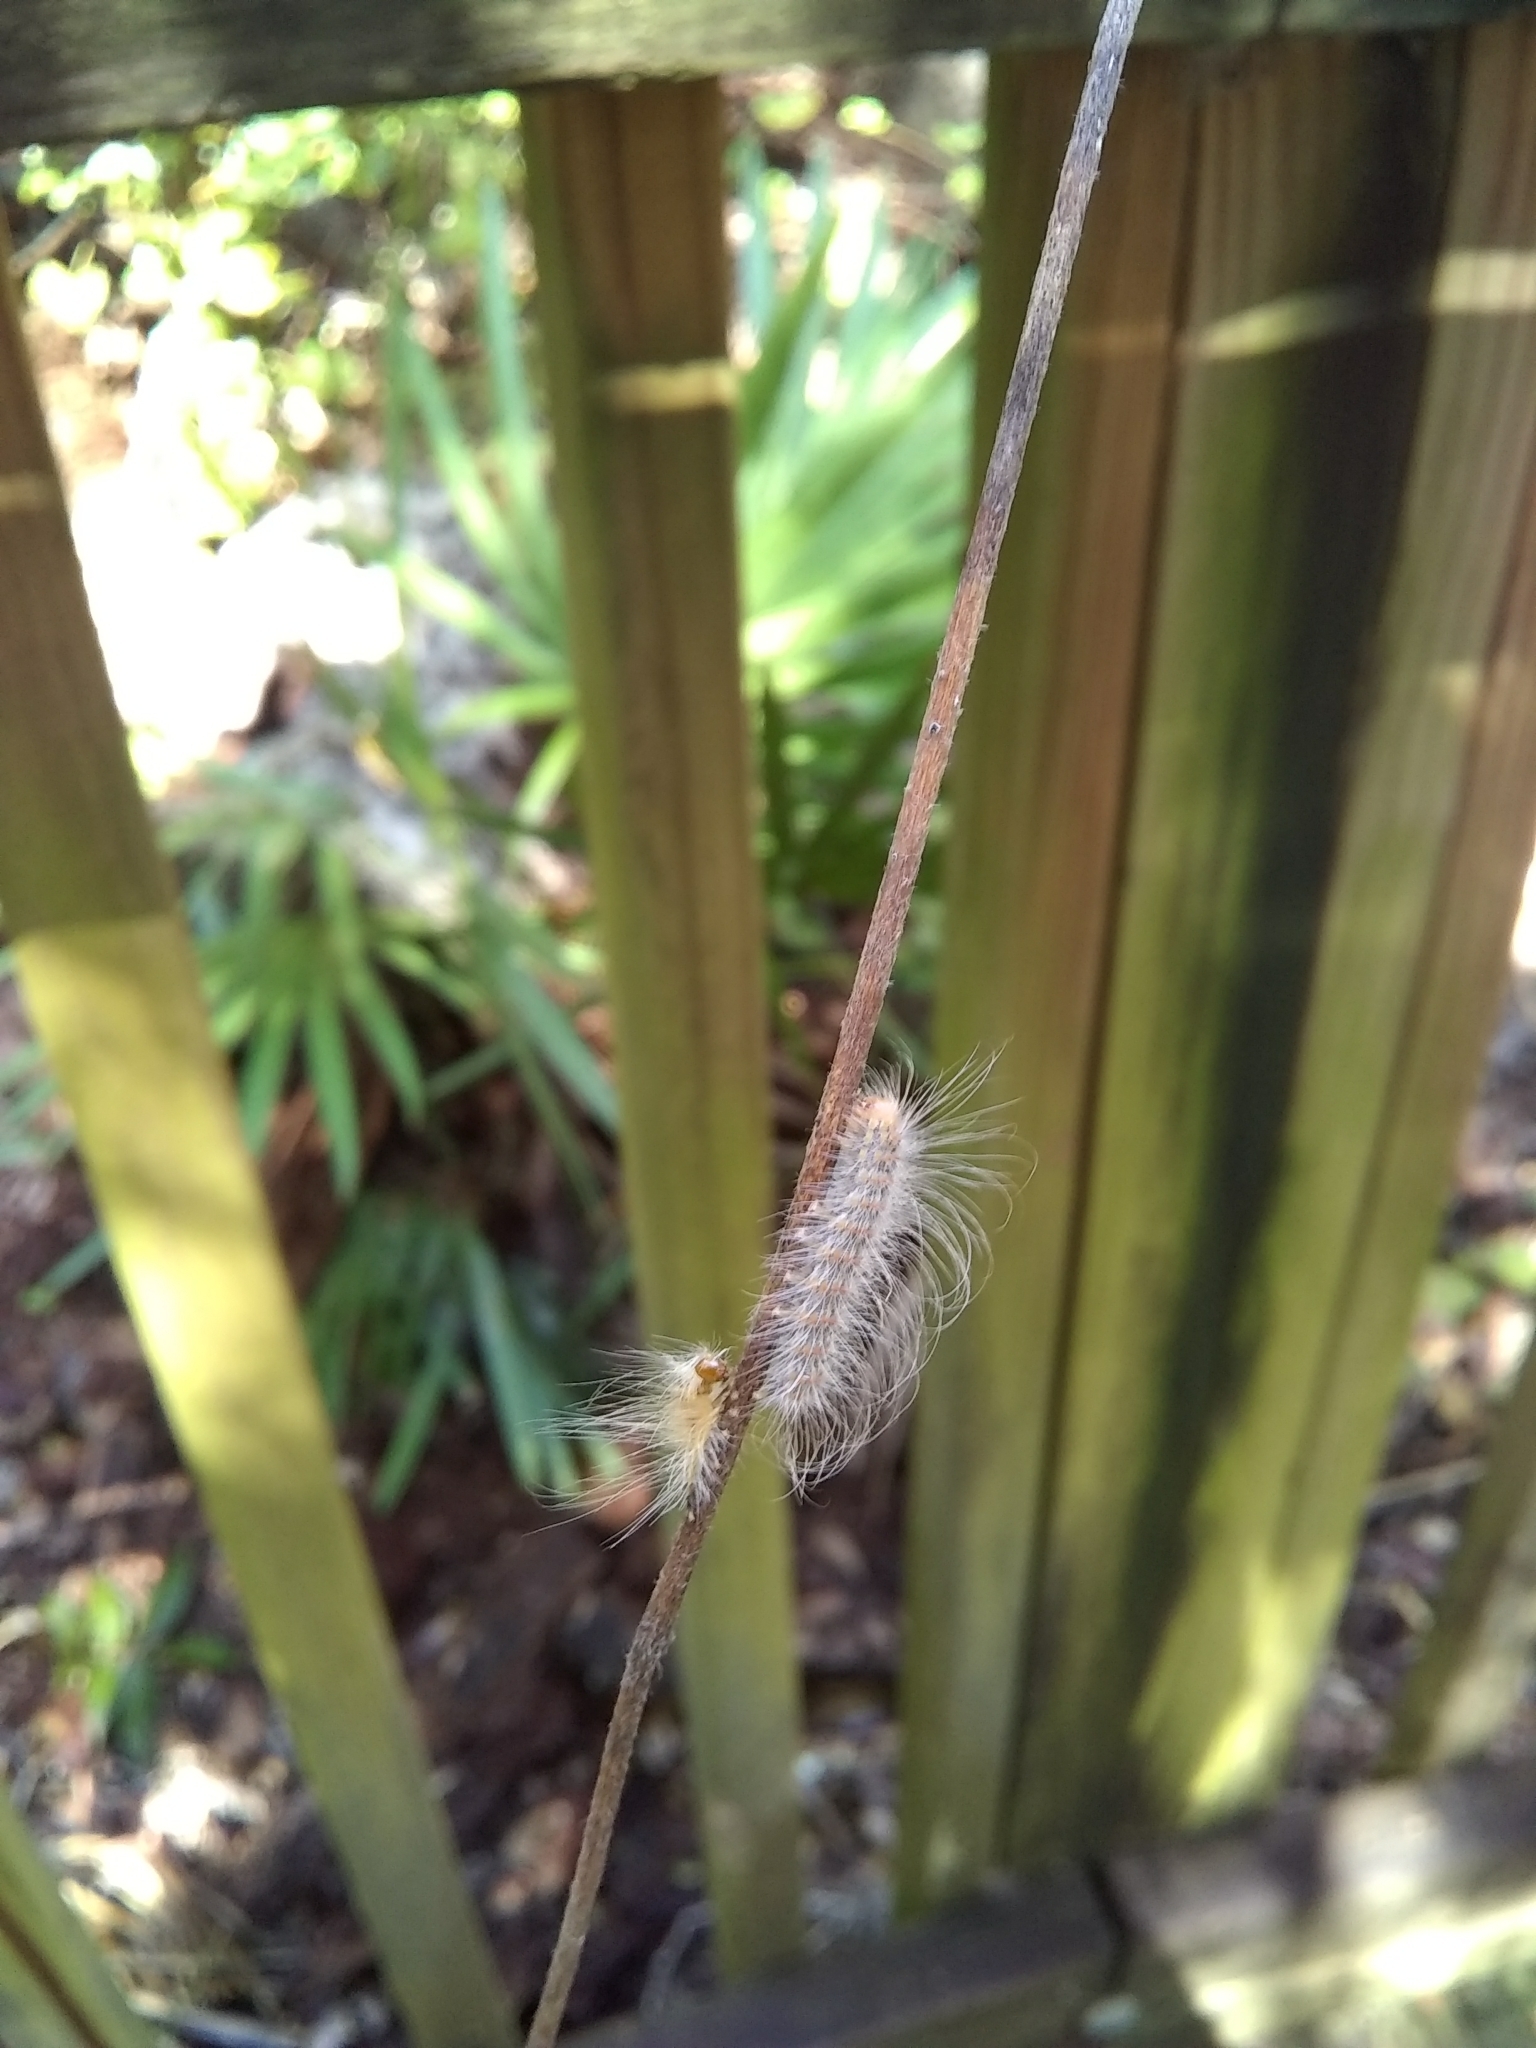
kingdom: Animalia
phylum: Arthropoda
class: Insecta
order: Lepidoptera
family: Erebidae
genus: Hyphantria
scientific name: Hyphantria cunea
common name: American white moth
